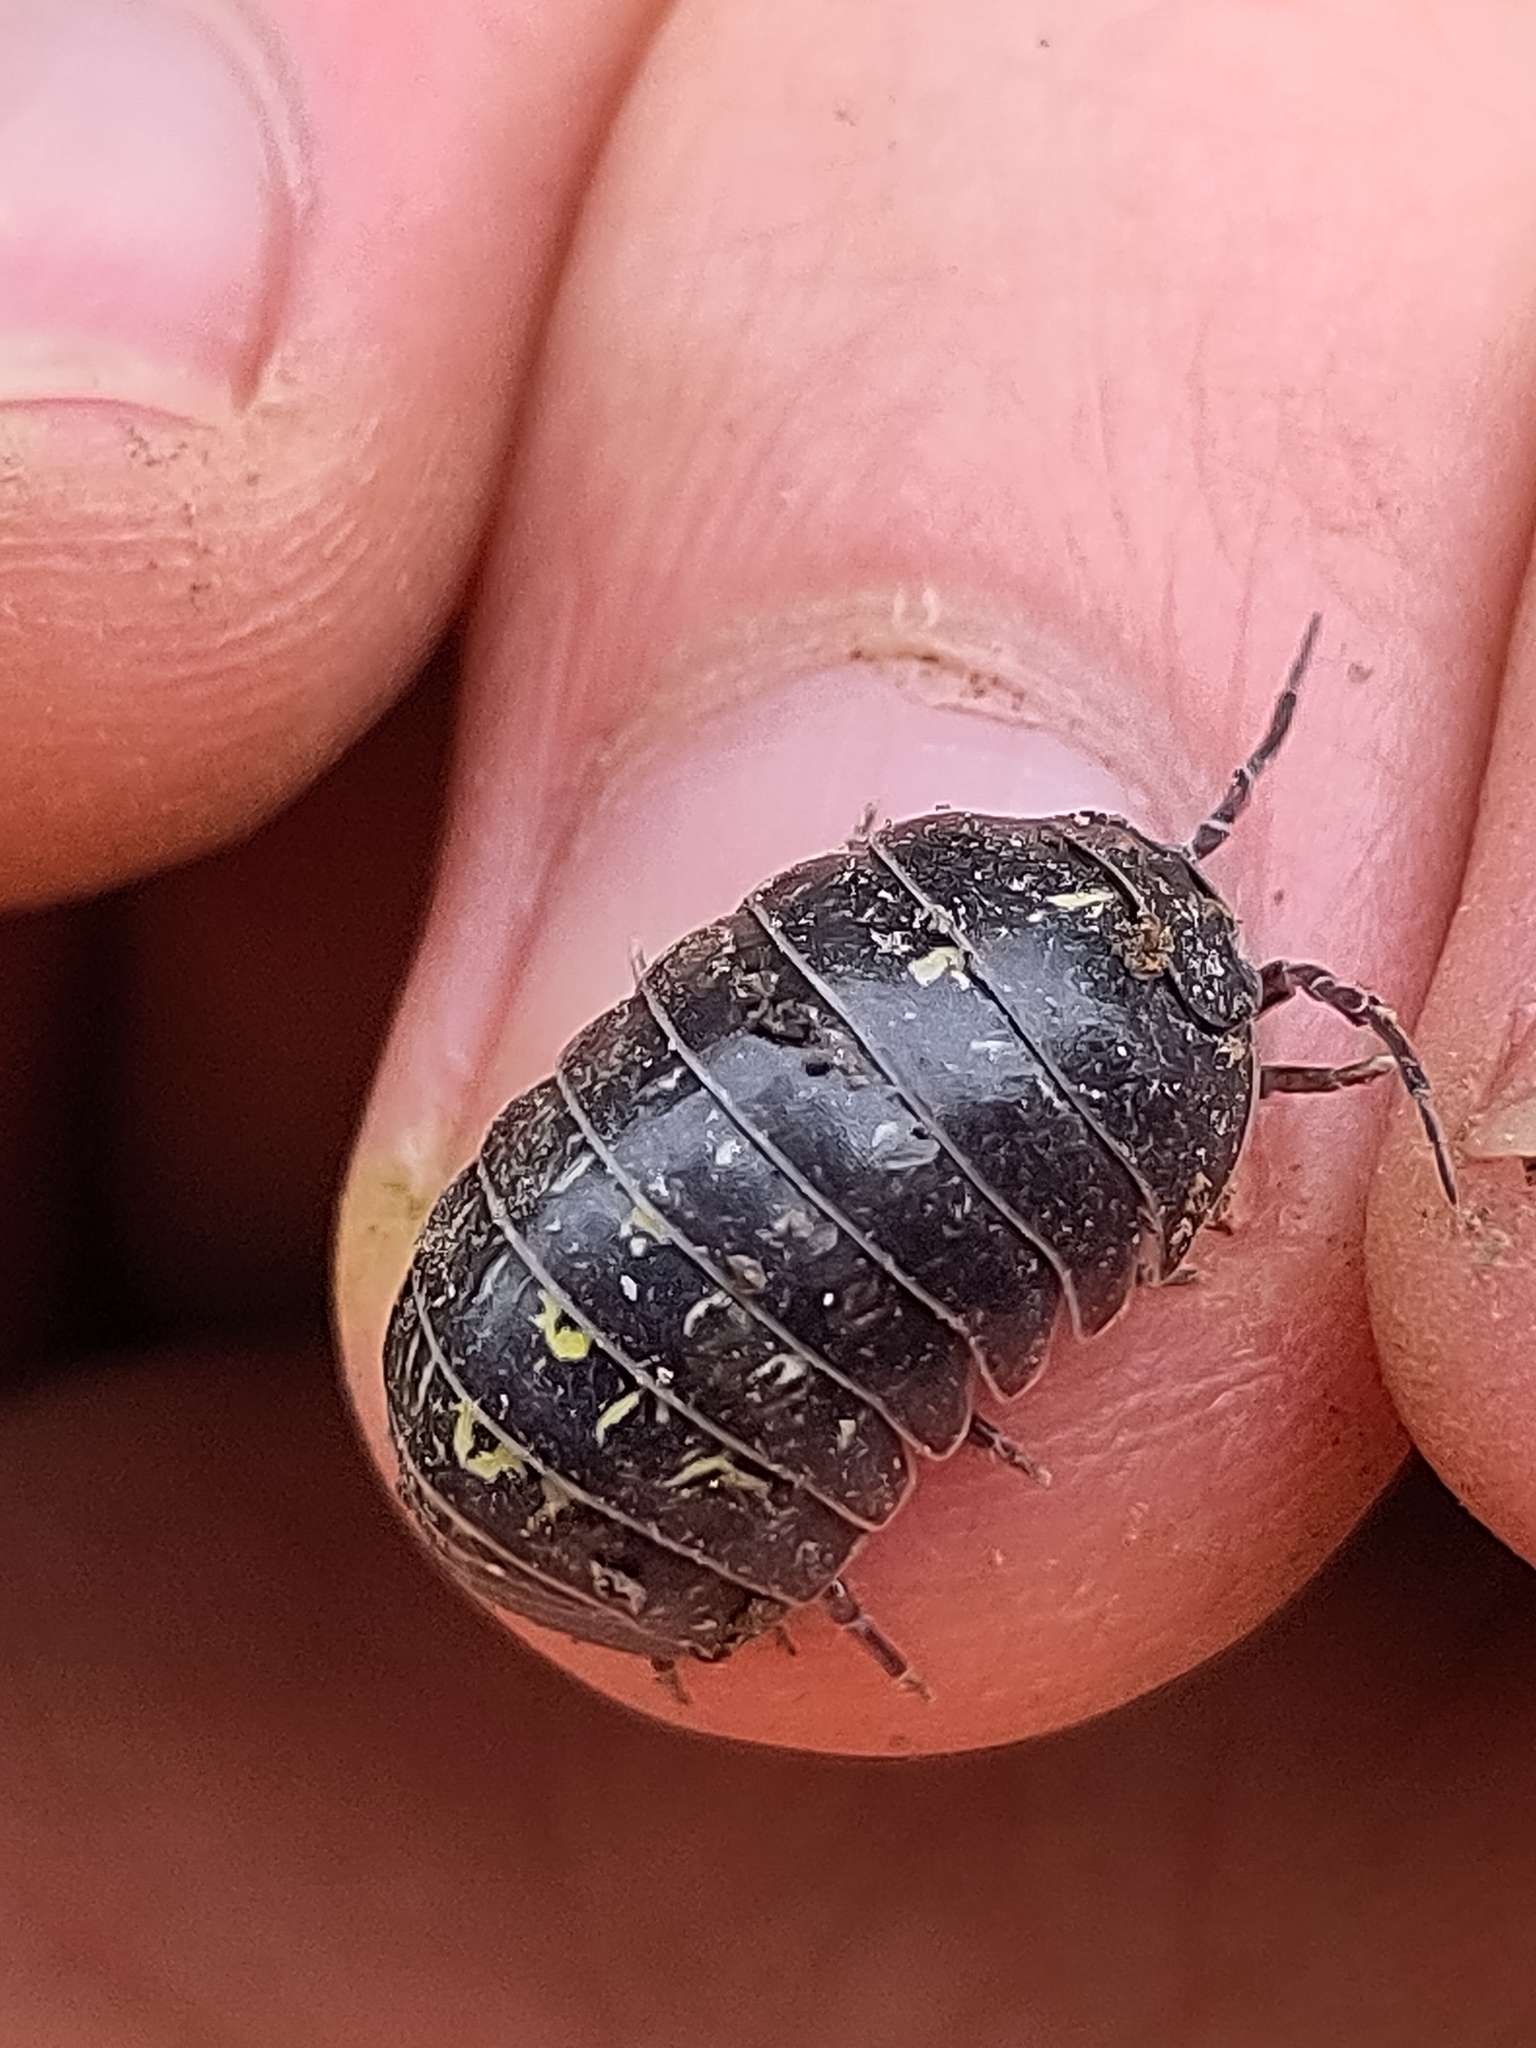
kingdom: Animalia
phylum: Arthropoda
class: Malacostraca
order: Isopoda
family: Armadillidiidae
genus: Armadillidium
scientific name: Armadillidium vulgare
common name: Common pill woodlouse
